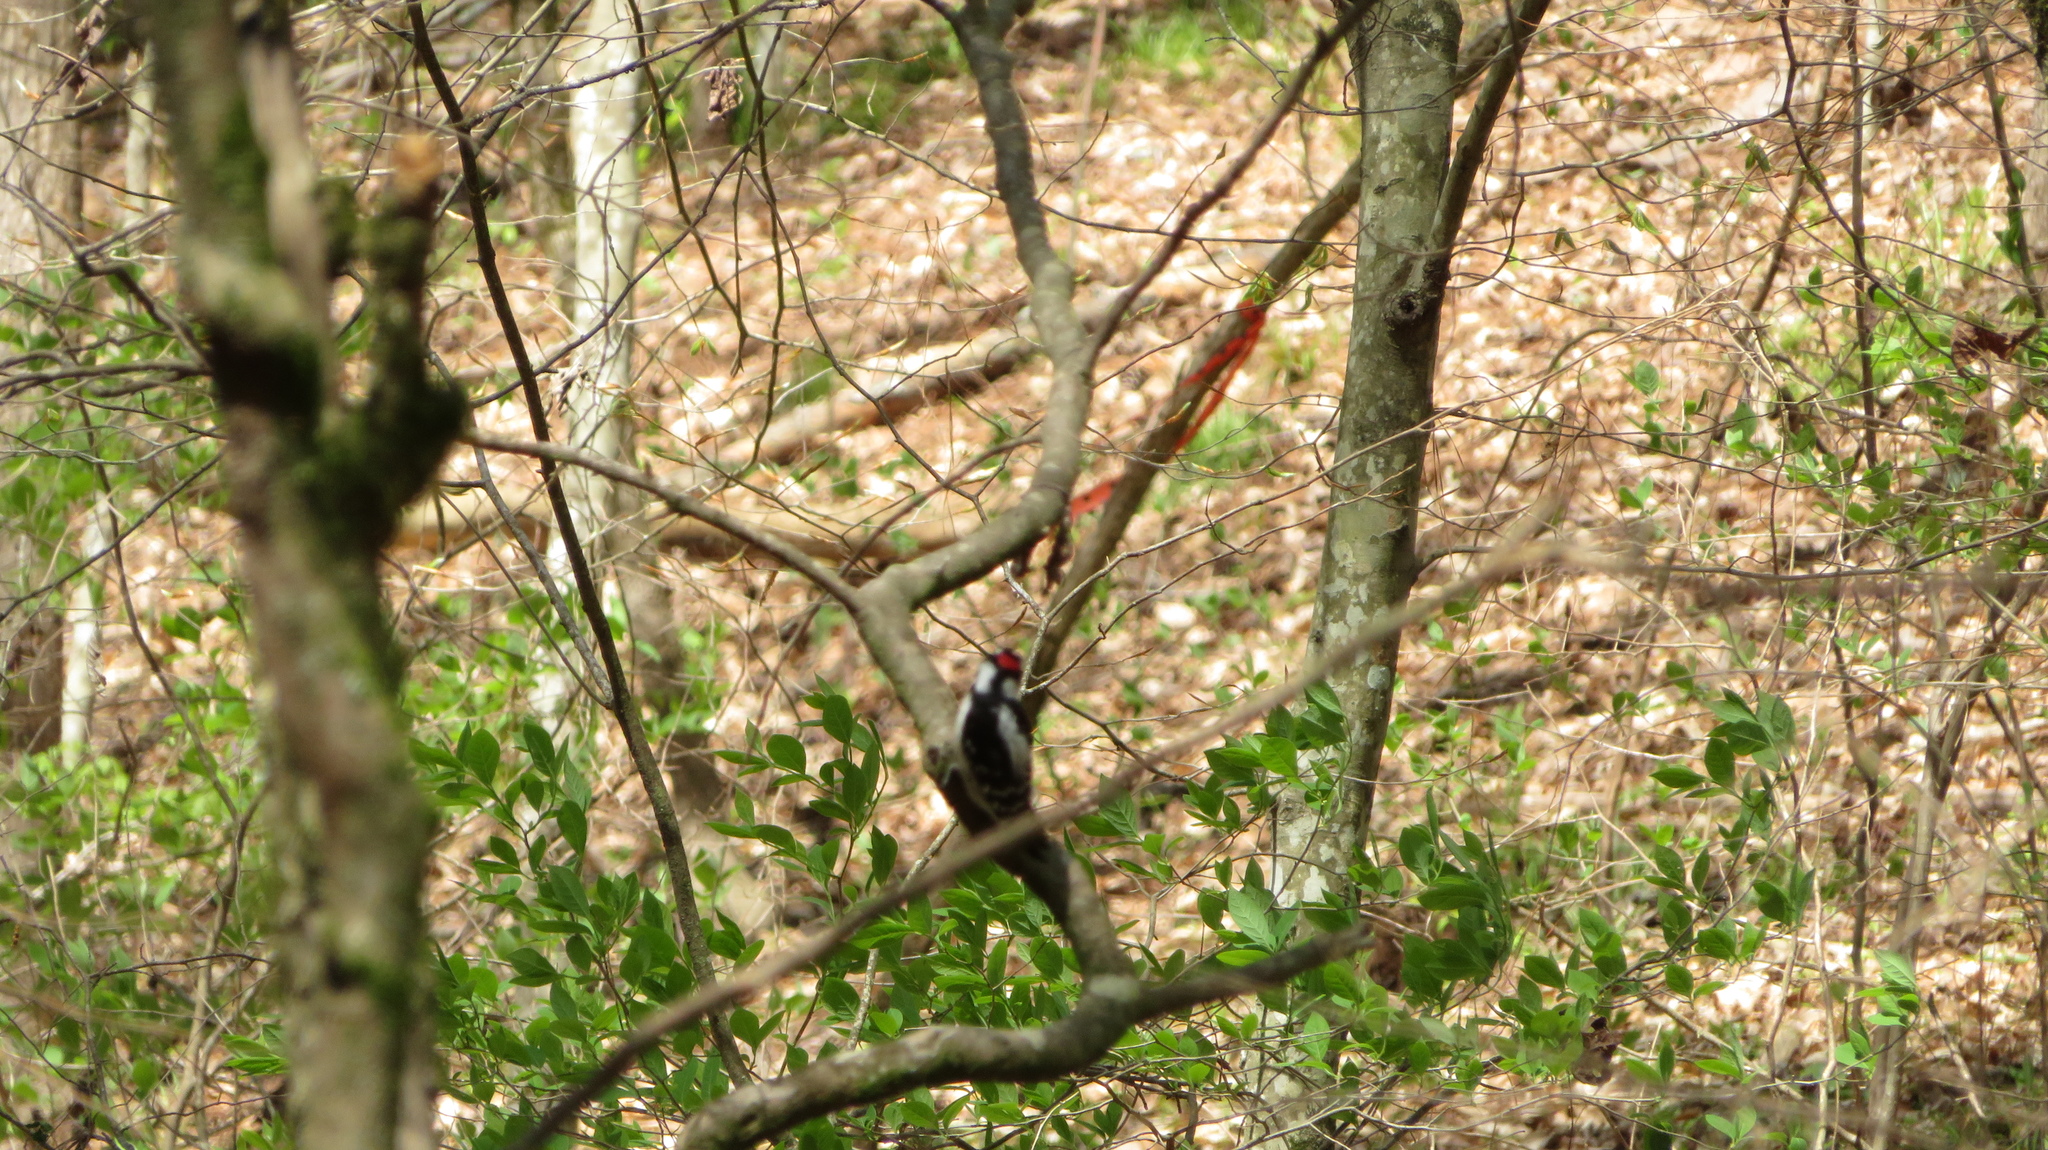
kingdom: Animalia
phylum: Chordata
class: Aves
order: Piciformes
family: Picidae
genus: Dryobates
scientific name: Dryobates pubescens
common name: Downy woodpecker
